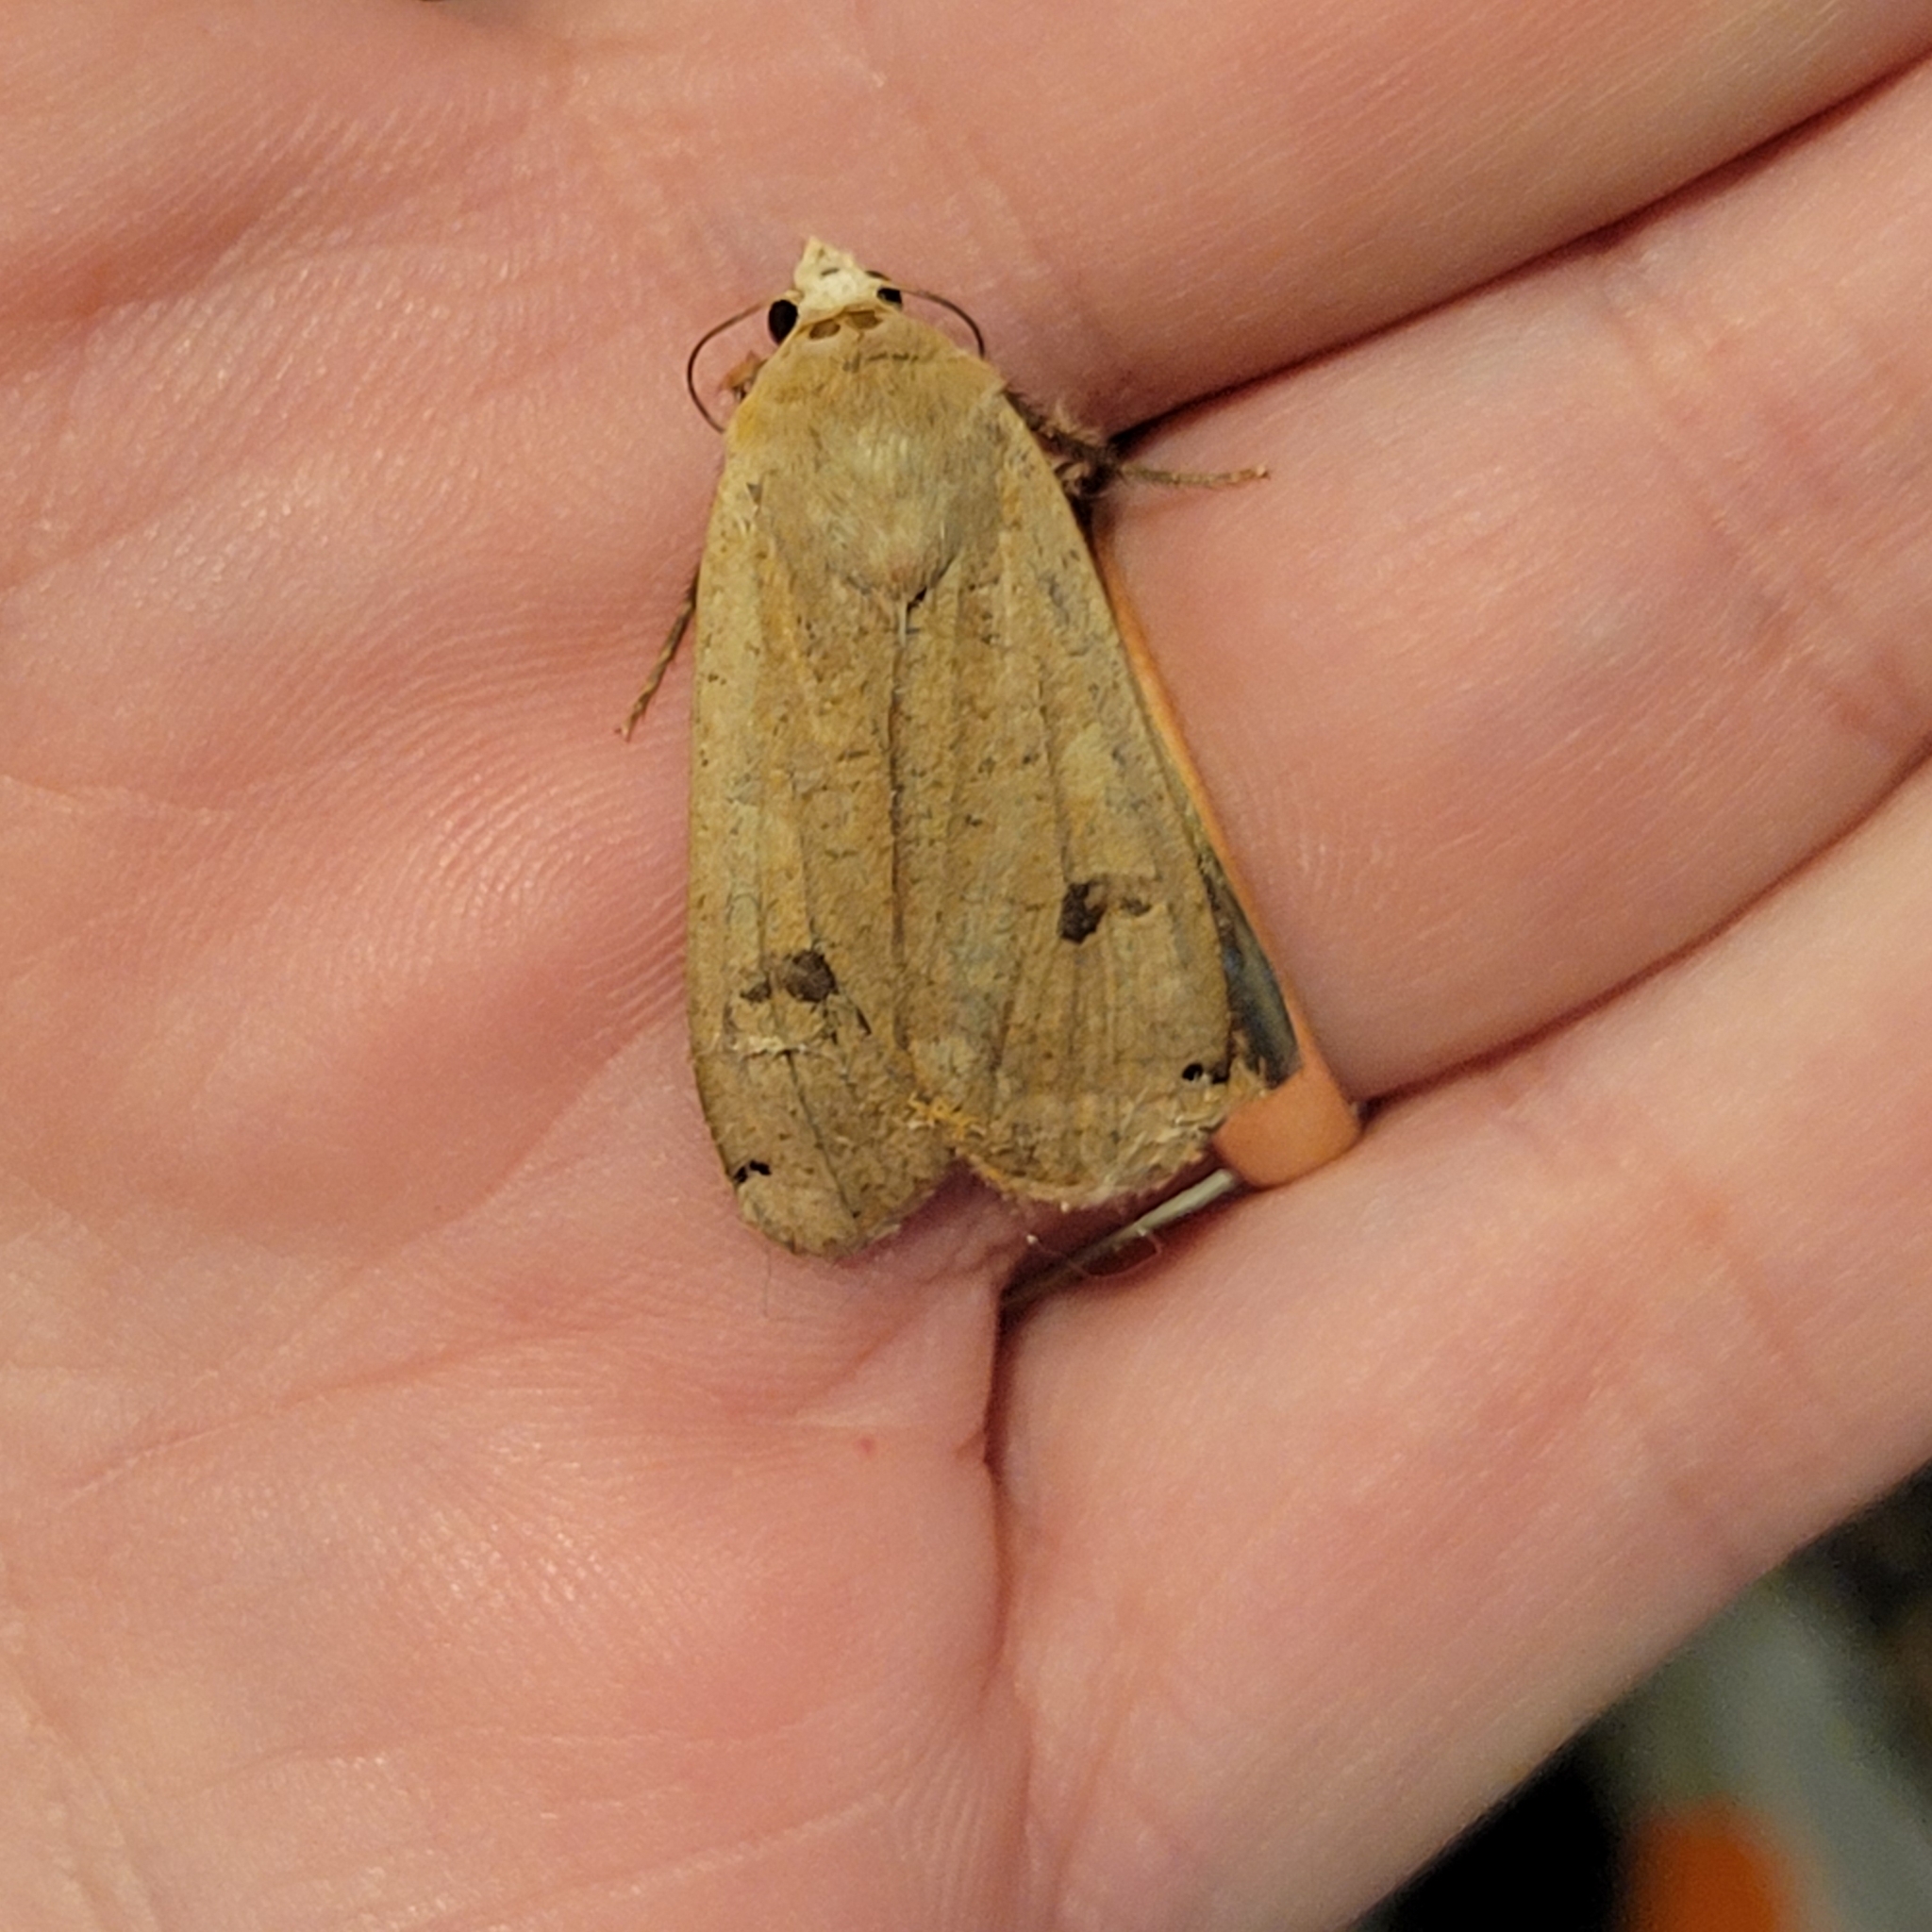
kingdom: Animalia
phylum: Arthropoda
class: Insecta
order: Lepidoptera
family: Noctuidae
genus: Noctua
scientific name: Noctua pronuba
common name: Large yellow underwing
